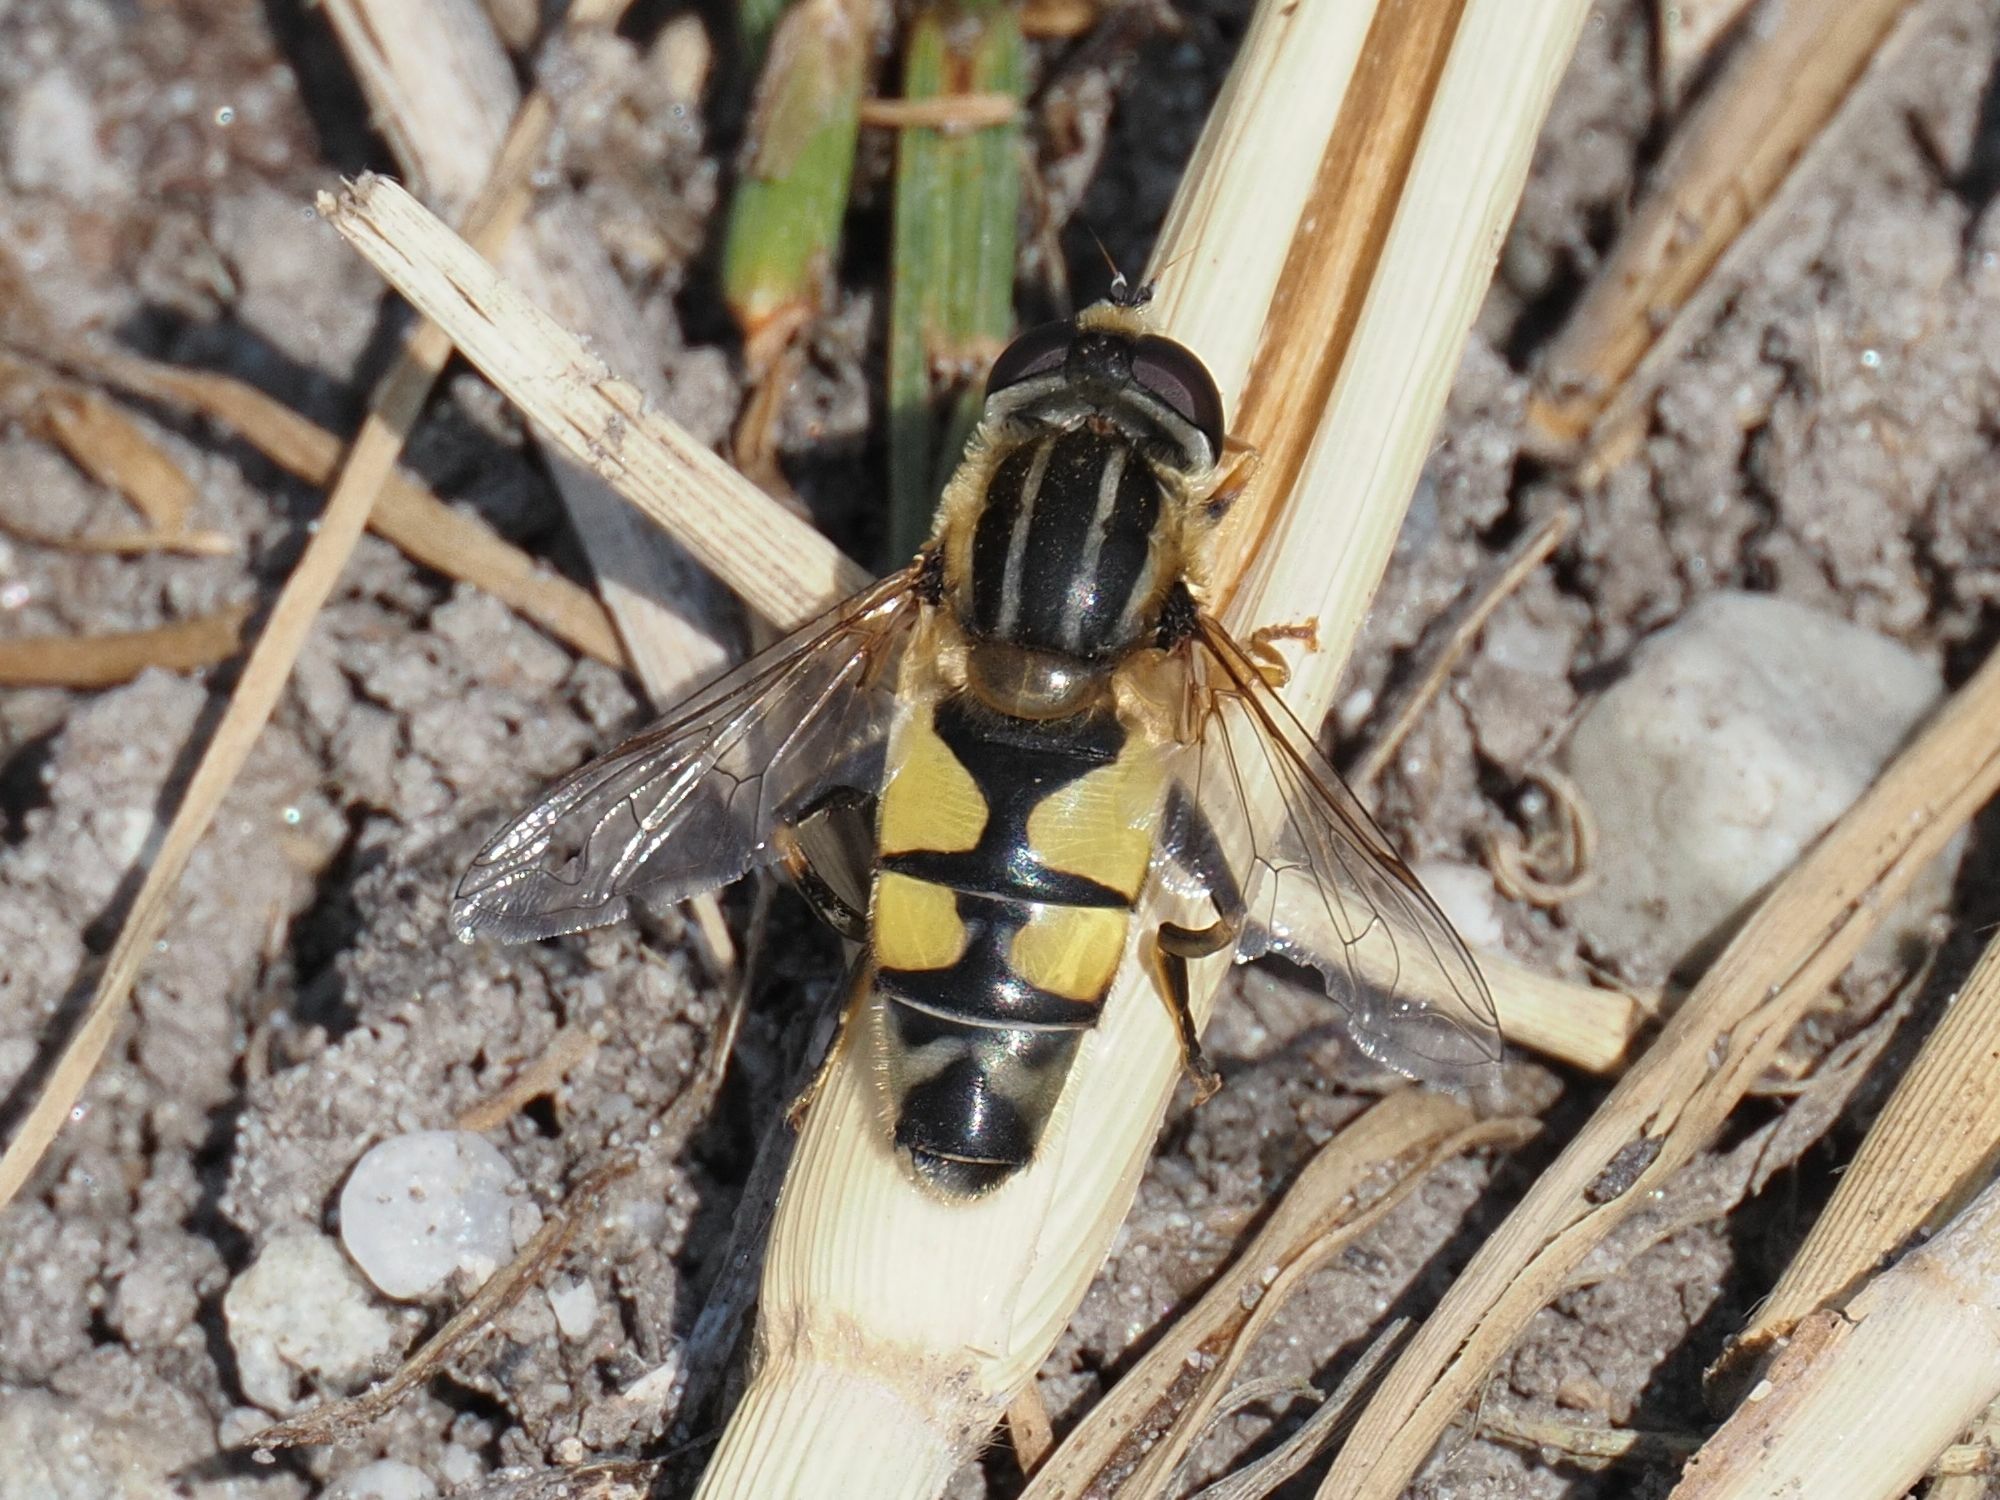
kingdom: Animalia
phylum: Arthropoda
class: Insecta
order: Diptera
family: Syrphidae
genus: Helophilus
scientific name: Helophilus trivittatus
